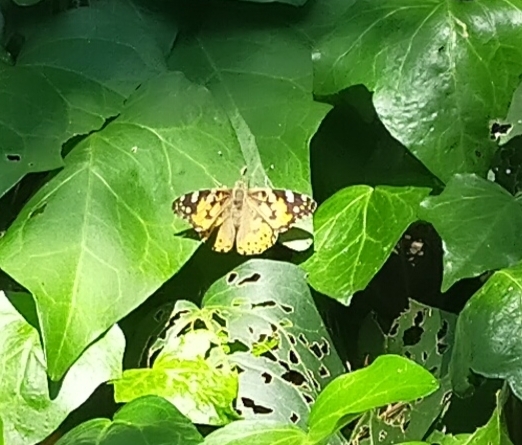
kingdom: Animalia
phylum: Arthropoda
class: Insecta
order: Lepidoptera
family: Nymphalidae
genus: Vanessa
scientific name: Vanessa cardui
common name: Painted lady
